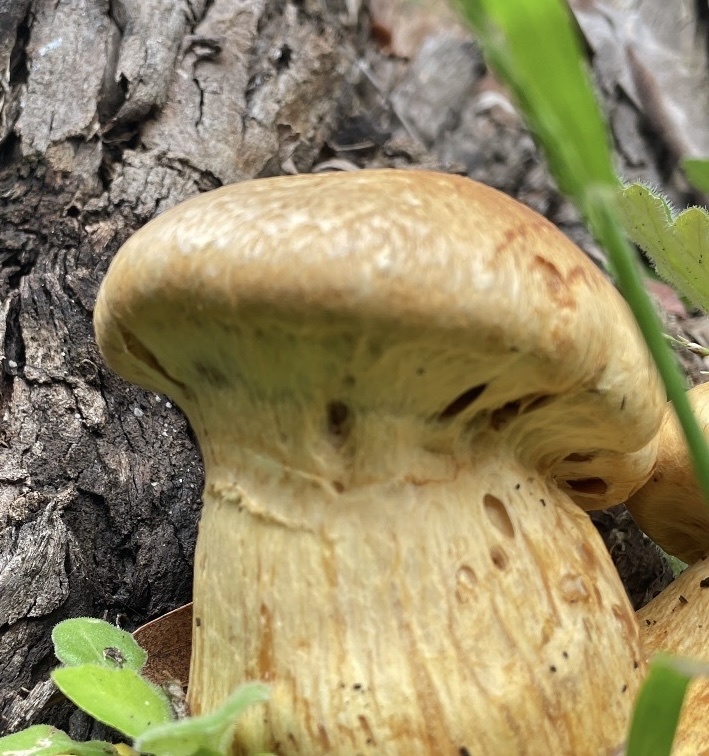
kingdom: Fungi
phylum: Basidiomycota
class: Agaricomycetes
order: Agaricales
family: Hymenogastraceae
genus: Gymnopilus
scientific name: Gymnopilus ventricosus
